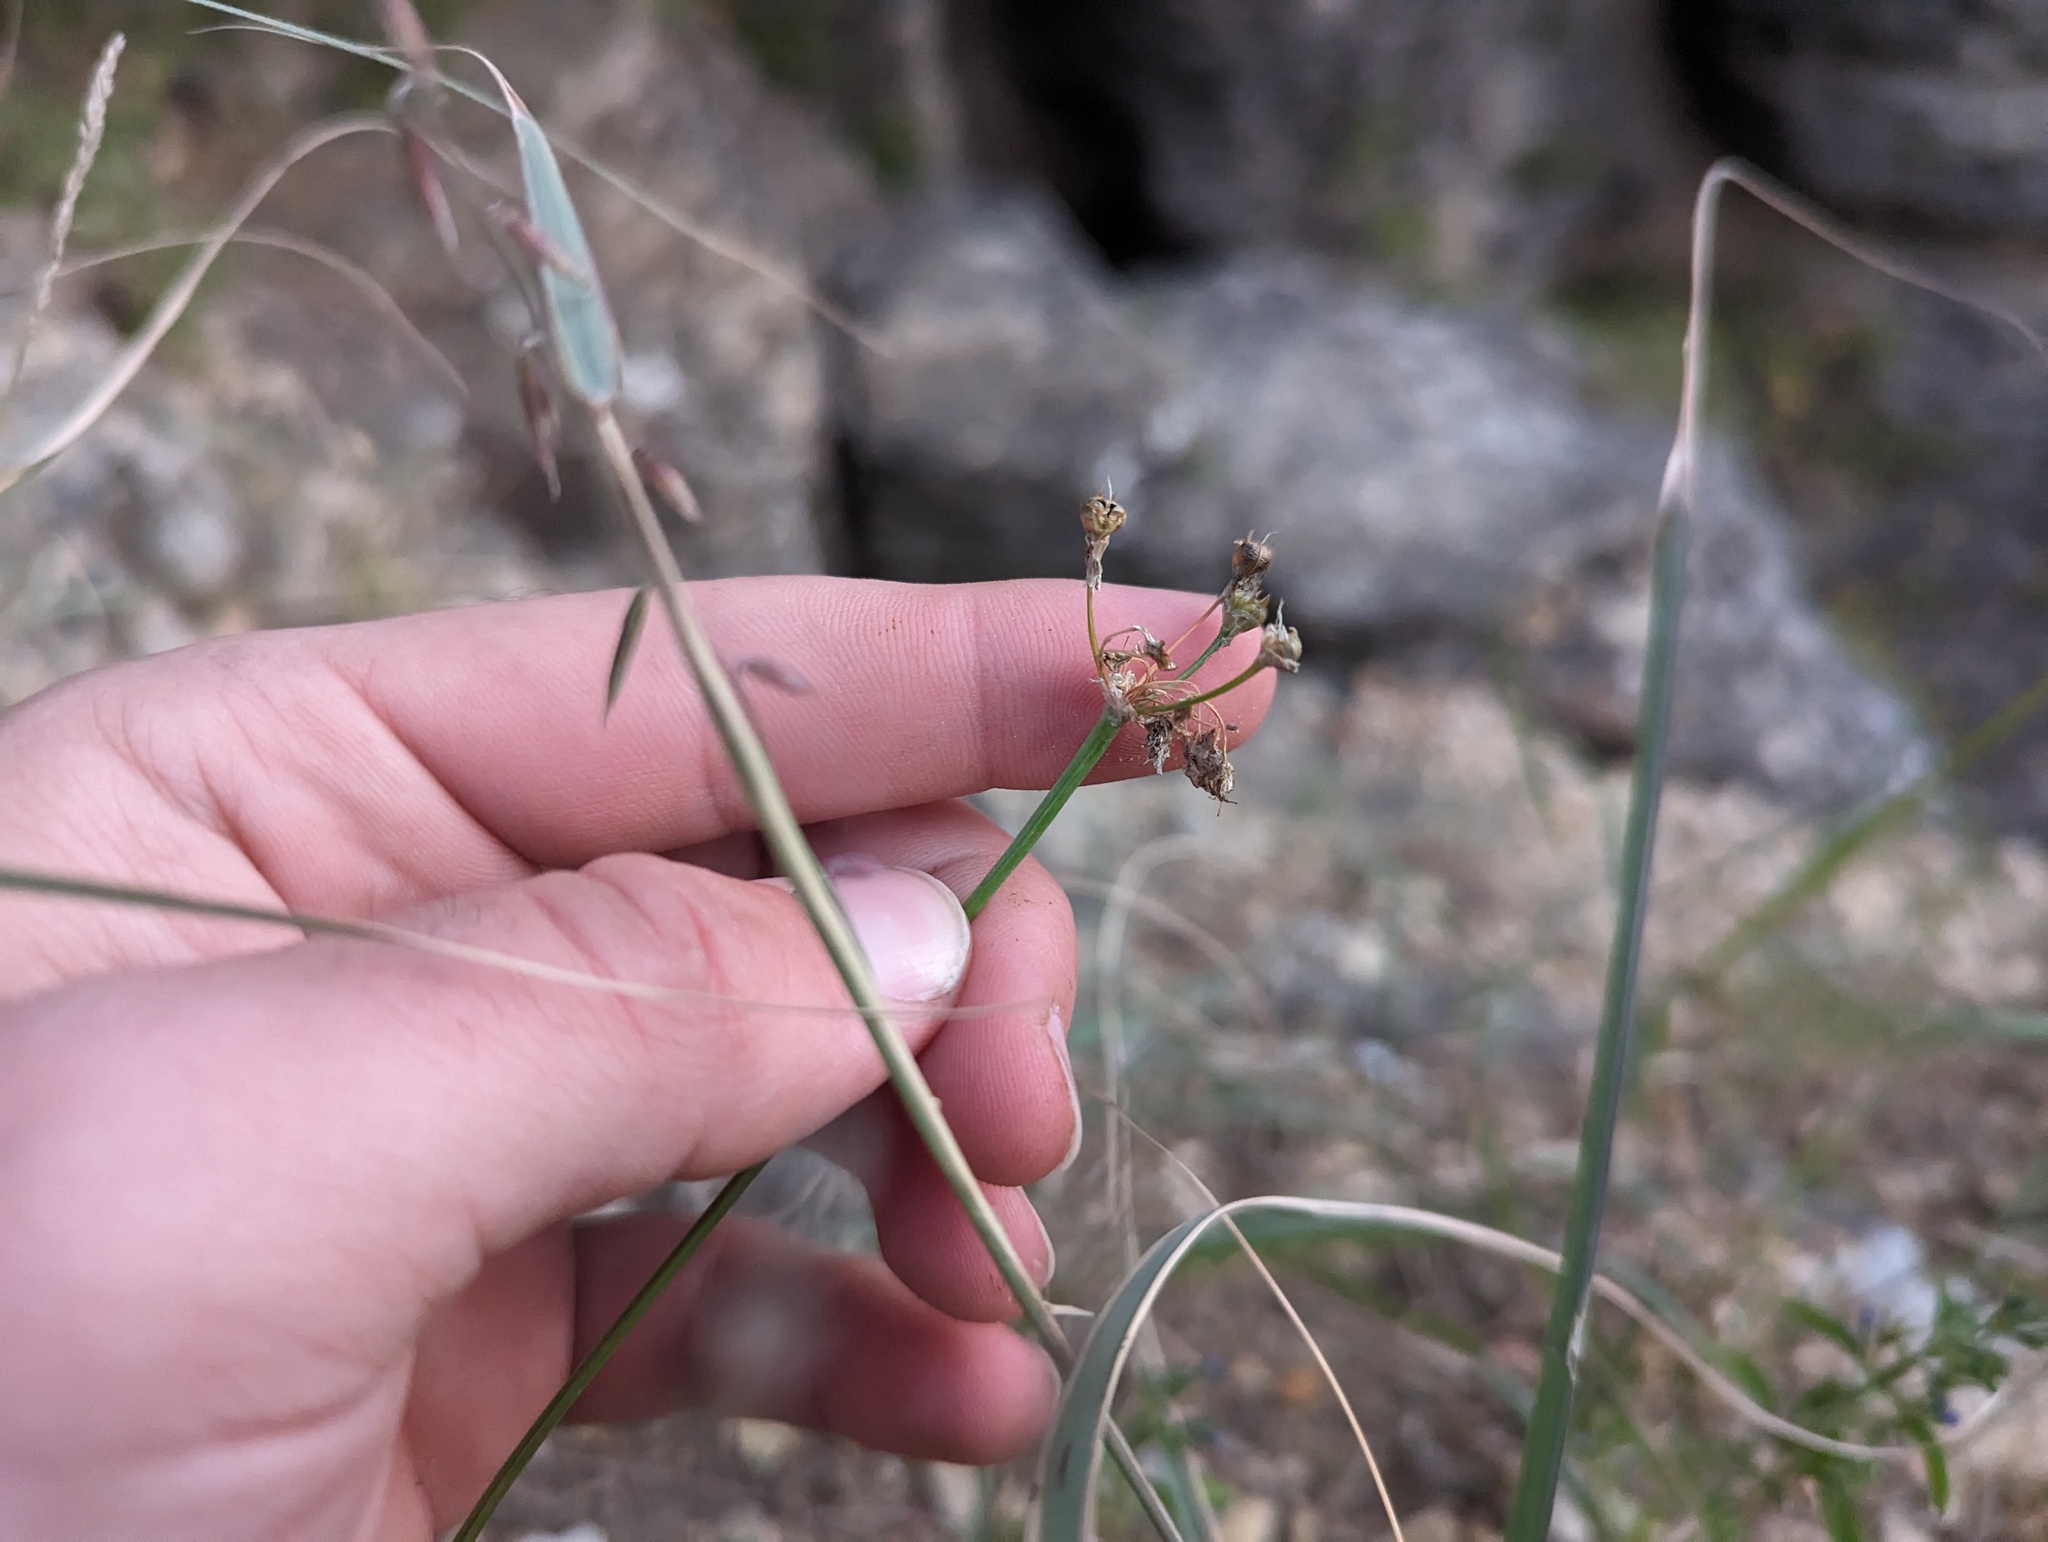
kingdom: Plantae
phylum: Tracheophyta
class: Liliopsida
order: Asparagales
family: Amaryllidaceae
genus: Allium
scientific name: Allium stellatum
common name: Autumn onion
